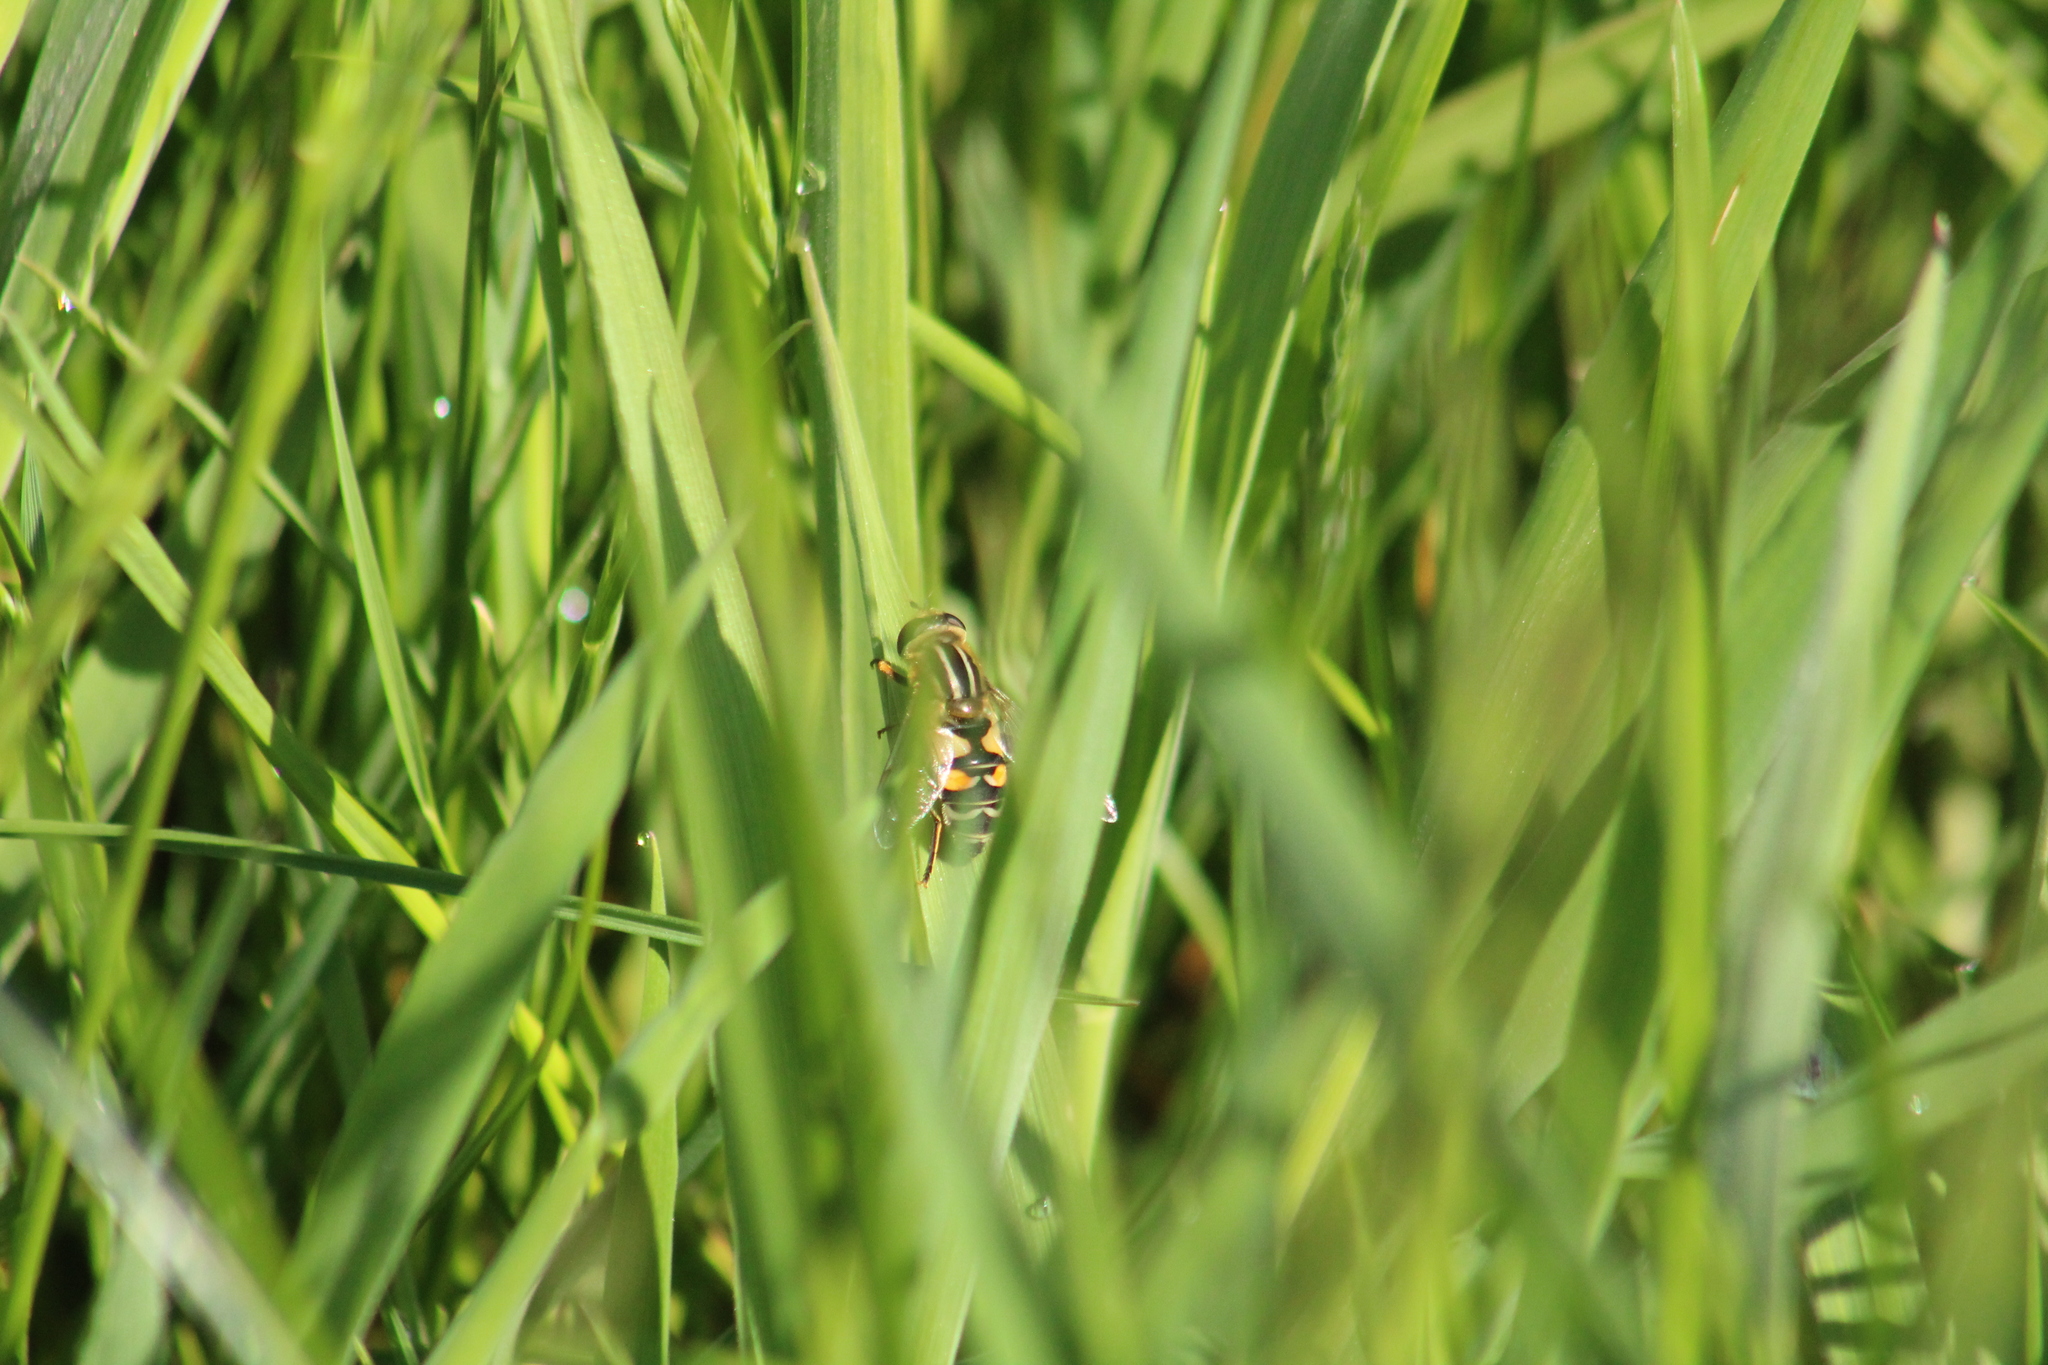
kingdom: Animalia
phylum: Arthropoda
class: Insecta
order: Diptera
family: Syrphidae
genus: Helophilus
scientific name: Helophilus trivittatus
